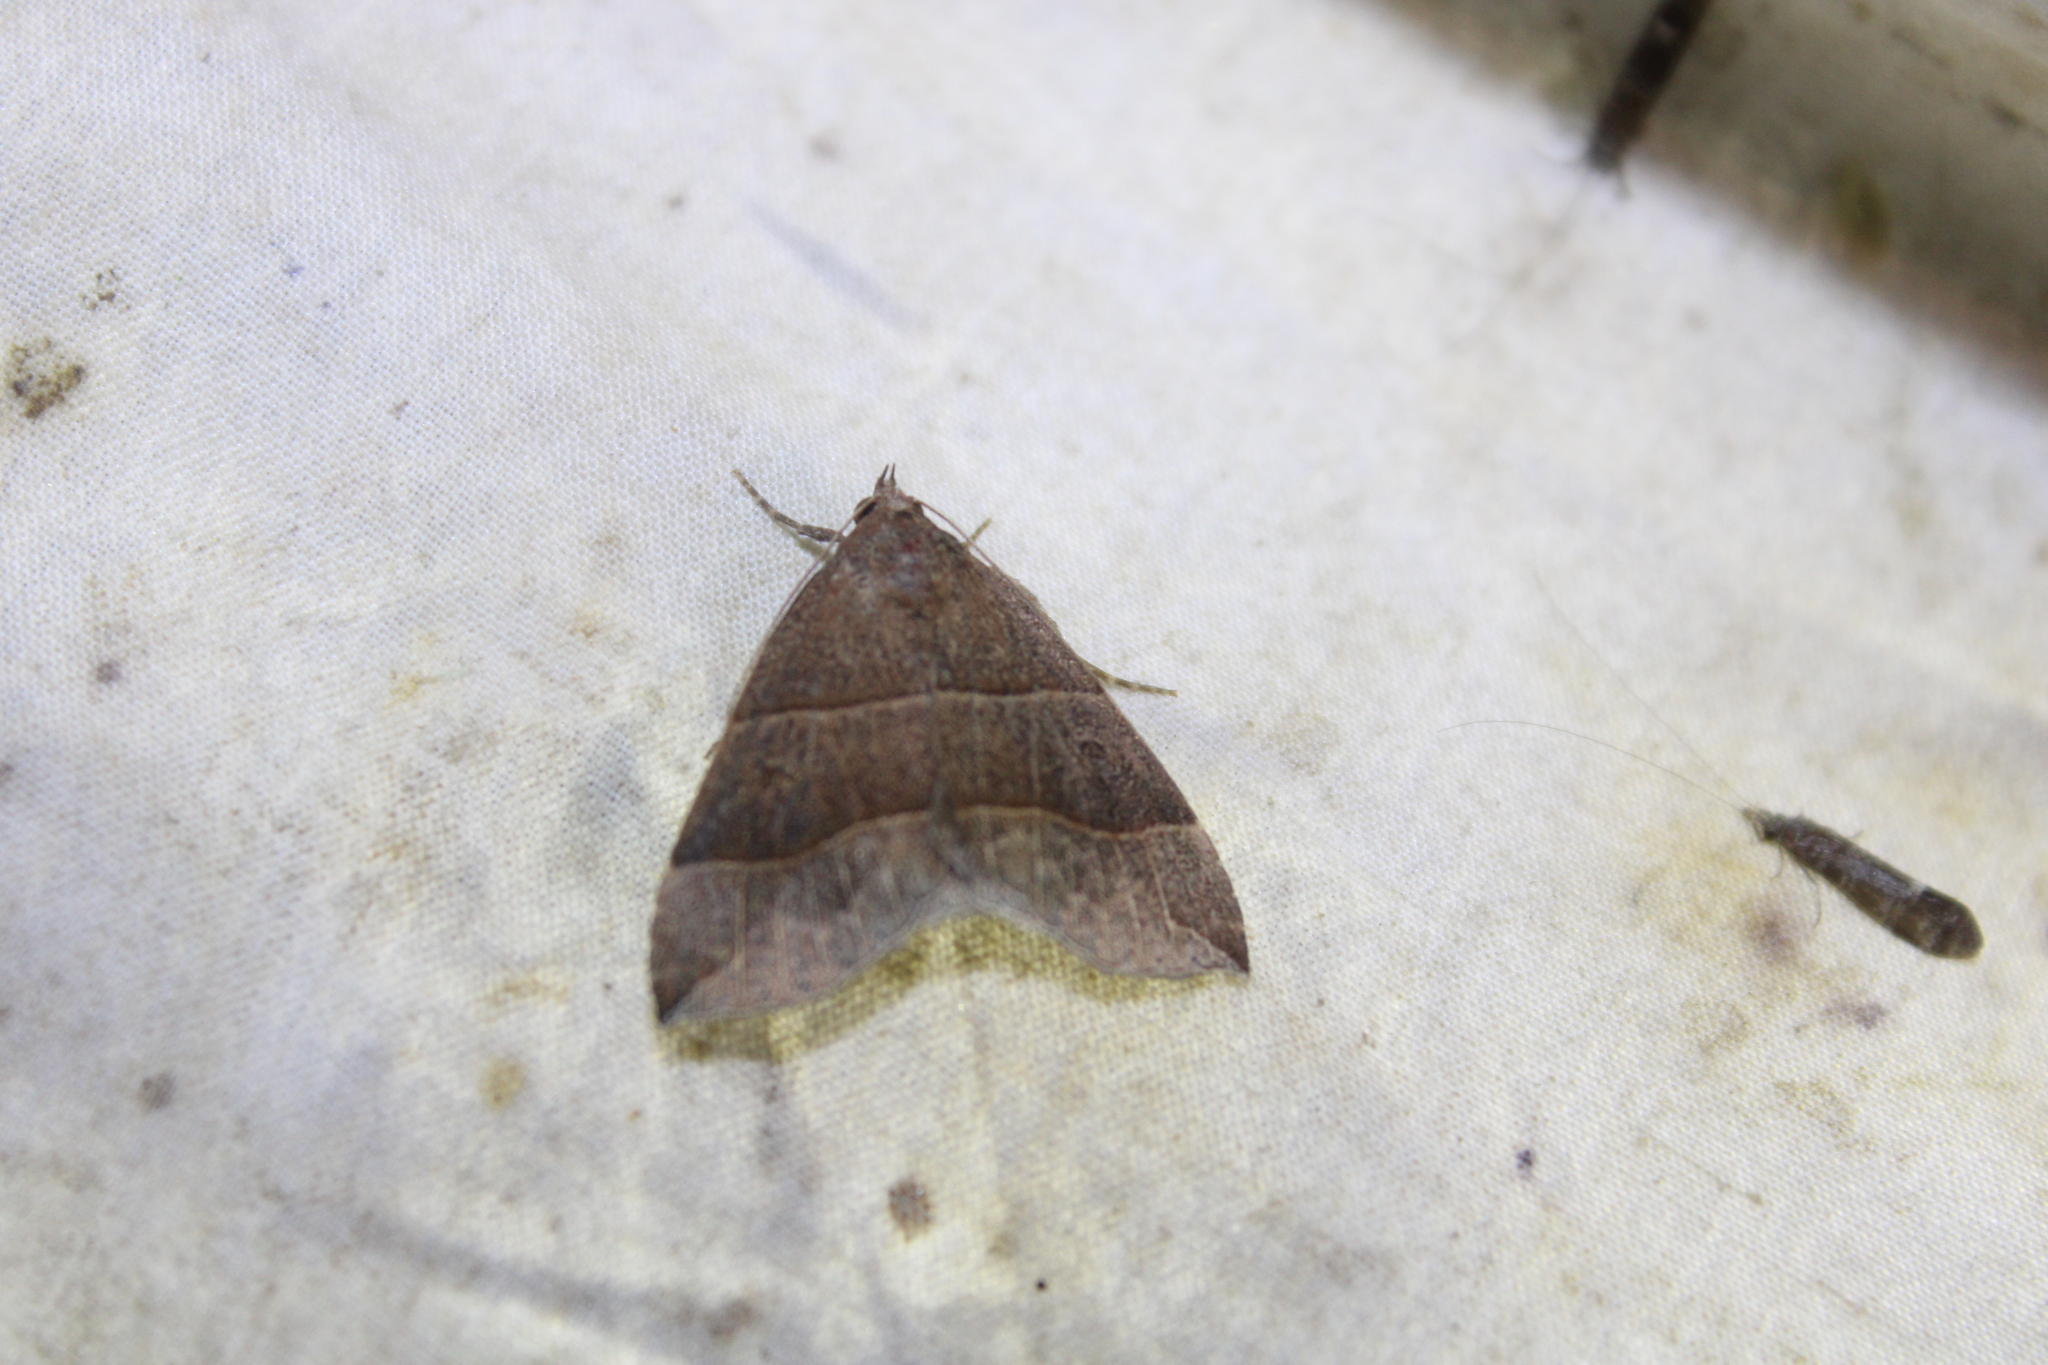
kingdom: Animalia
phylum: Arthropoda
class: Insecta
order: Lepidoptera
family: Erebidae
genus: Parallelia
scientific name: Parallelia bistriaris
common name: Maple looper moth
